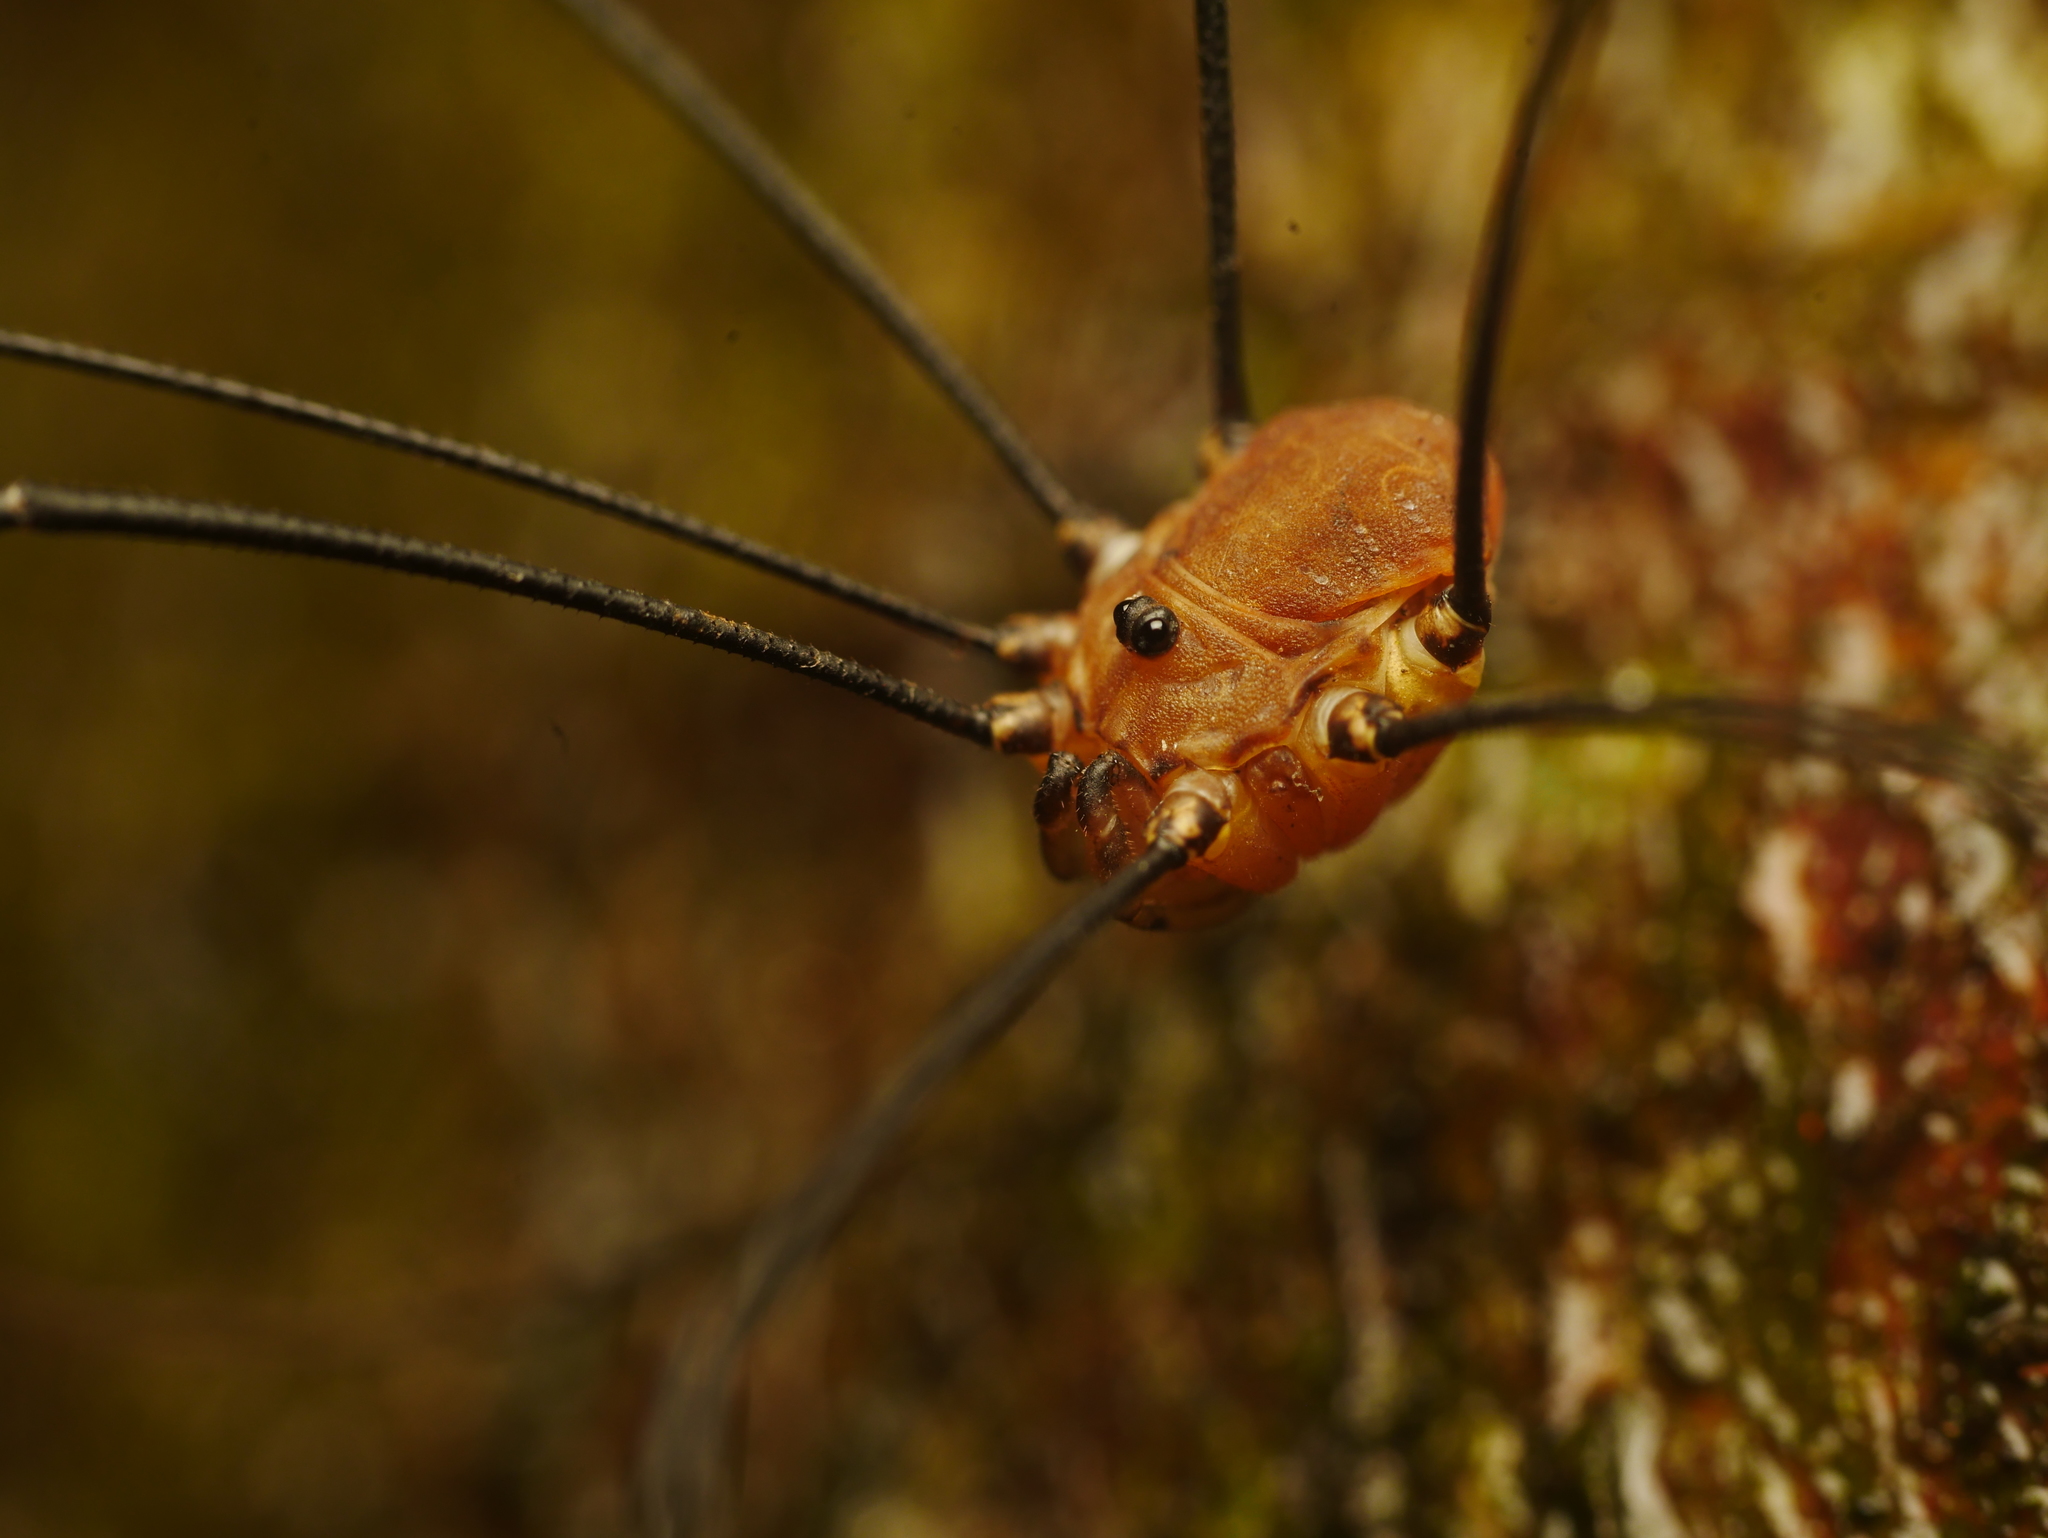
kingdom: Animalia
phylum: Arthropoda
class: Arachnida
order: Opiliones
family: Sclerosomatidae
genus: Leiobunum
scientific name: Leiobunum rotundum
